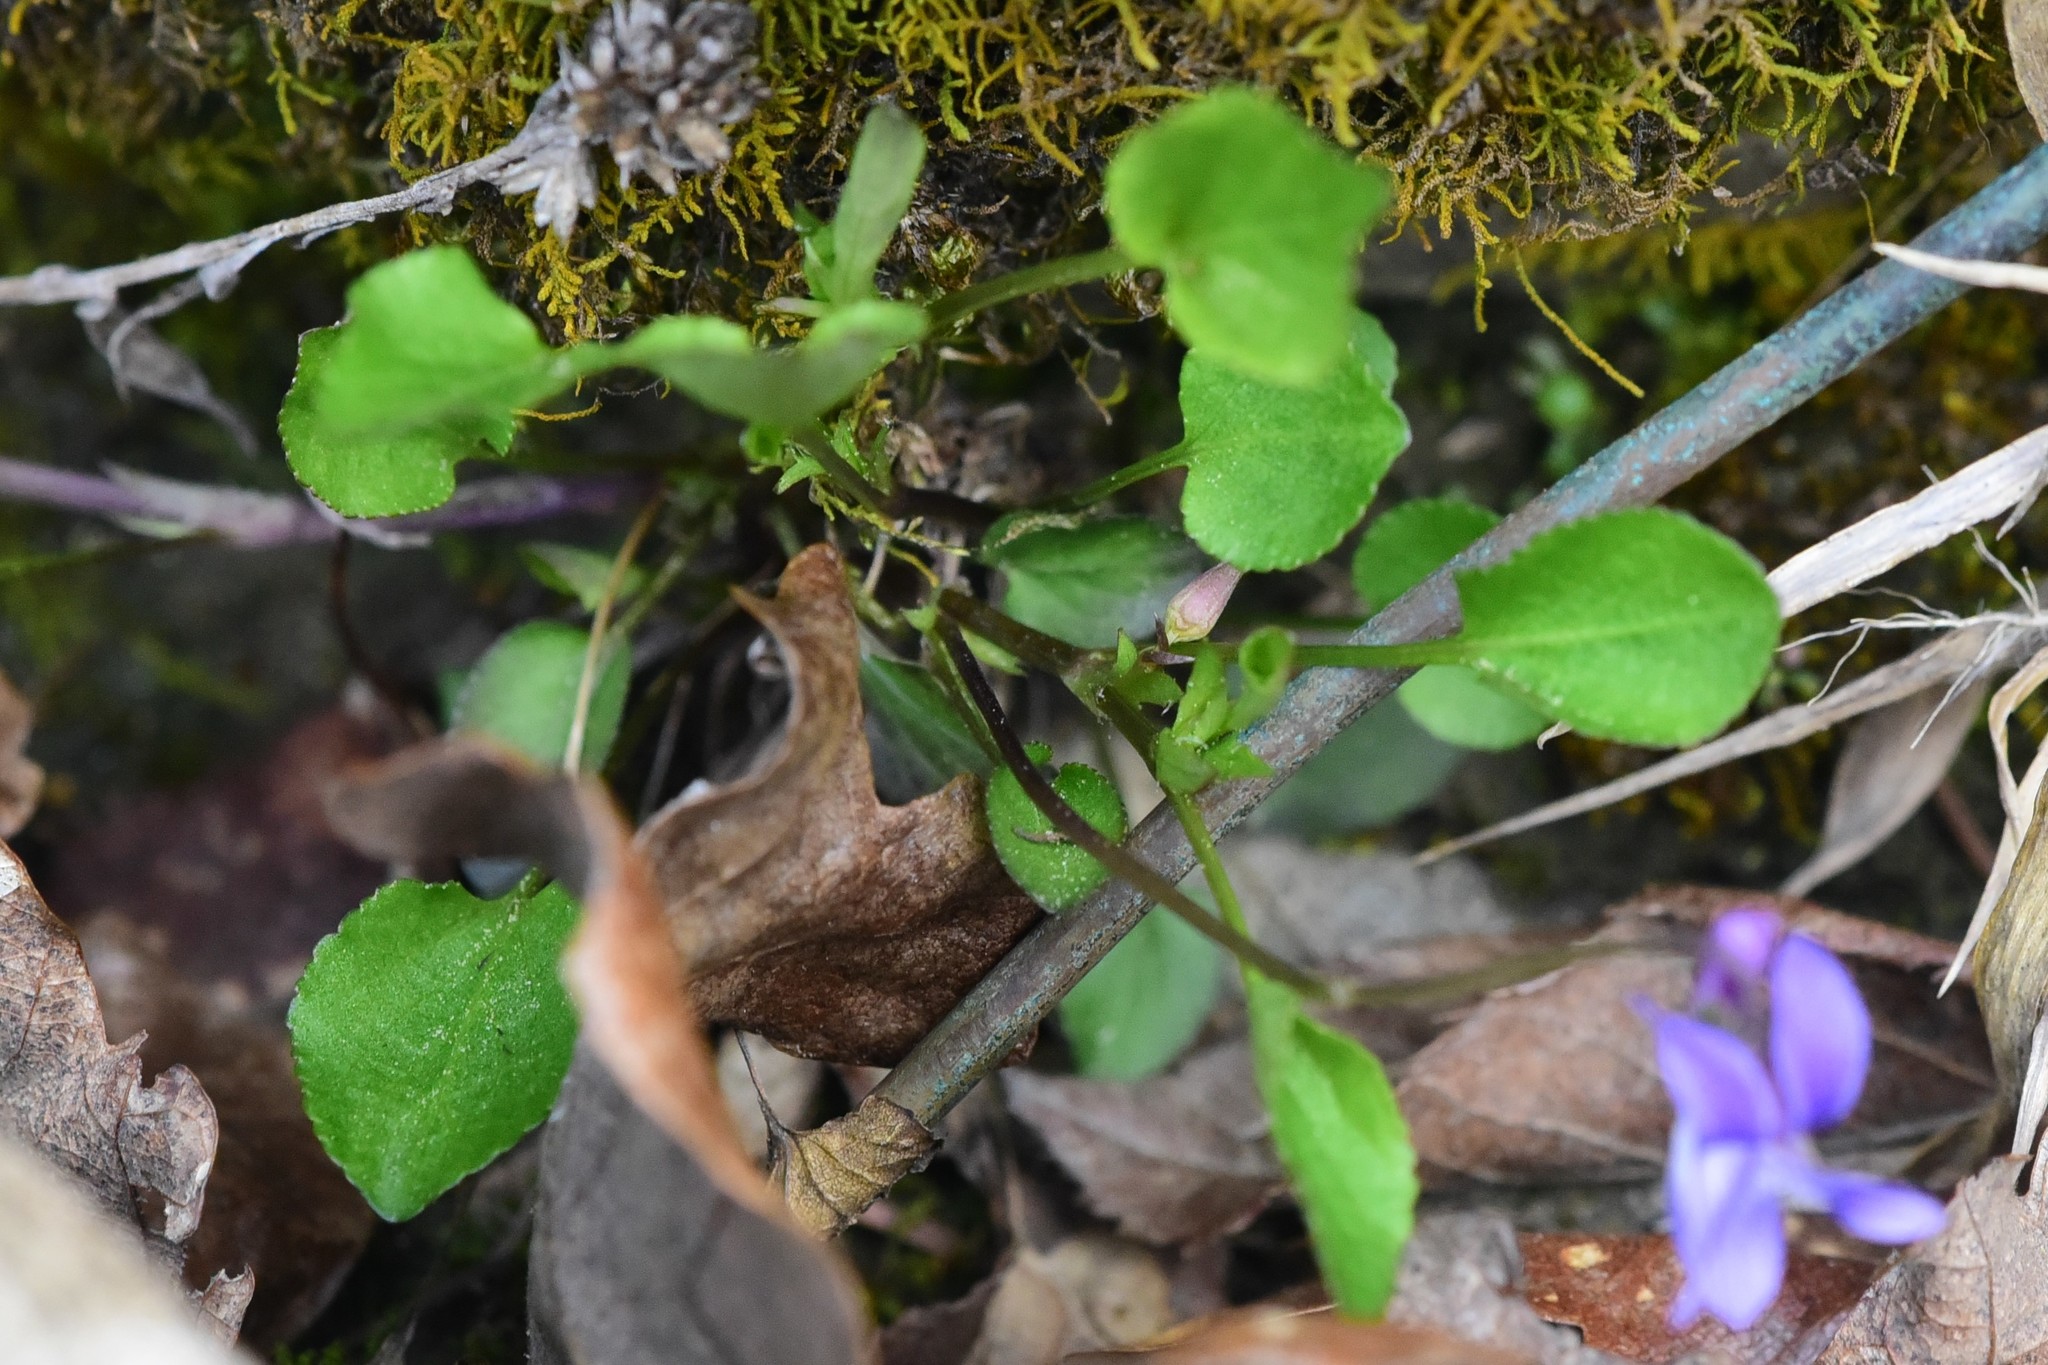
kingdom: Plantae
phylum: Tracheophyta
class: Magnoliopsida
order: Malpighiales
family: Violaceae
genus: Viola
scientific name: Viola adunca
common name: Sand violet
